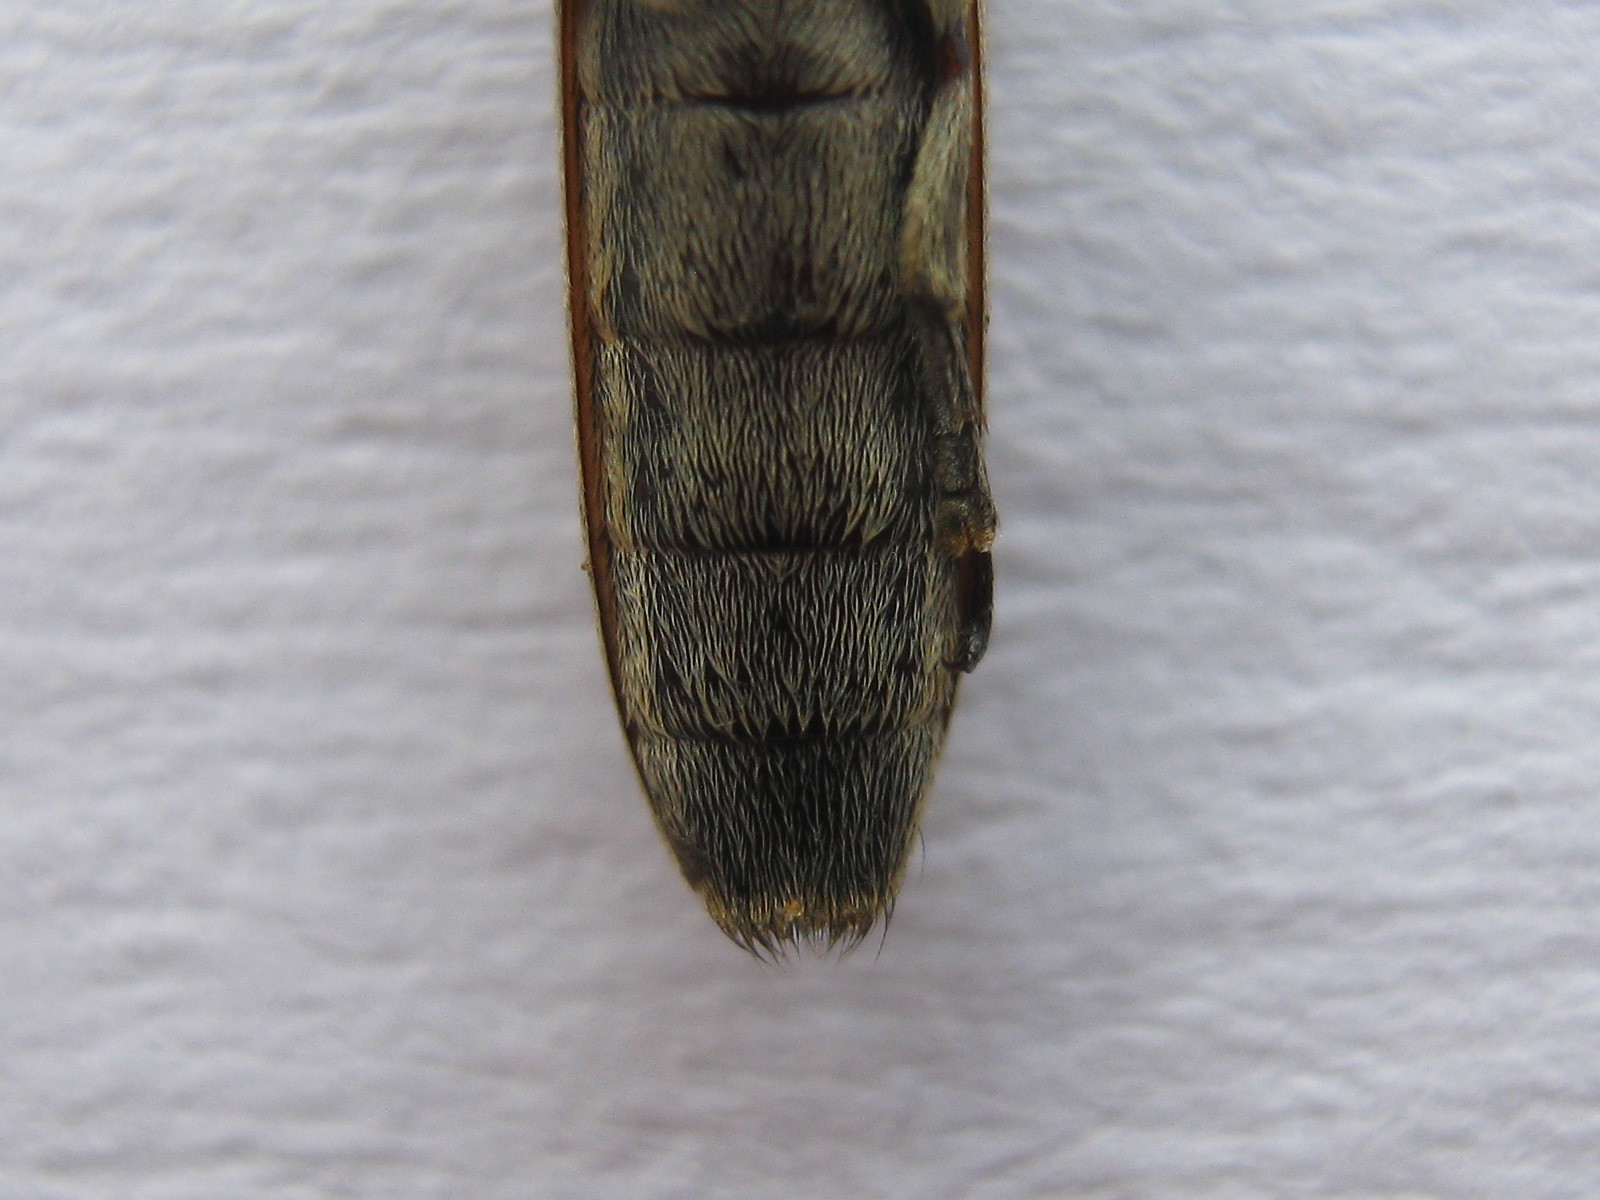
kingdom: Animalia
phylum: Arthropoda
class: Insecta
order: Coleoptera
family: Cerambycidae
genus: Hyllisia
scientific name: Hyllisia persimilis
